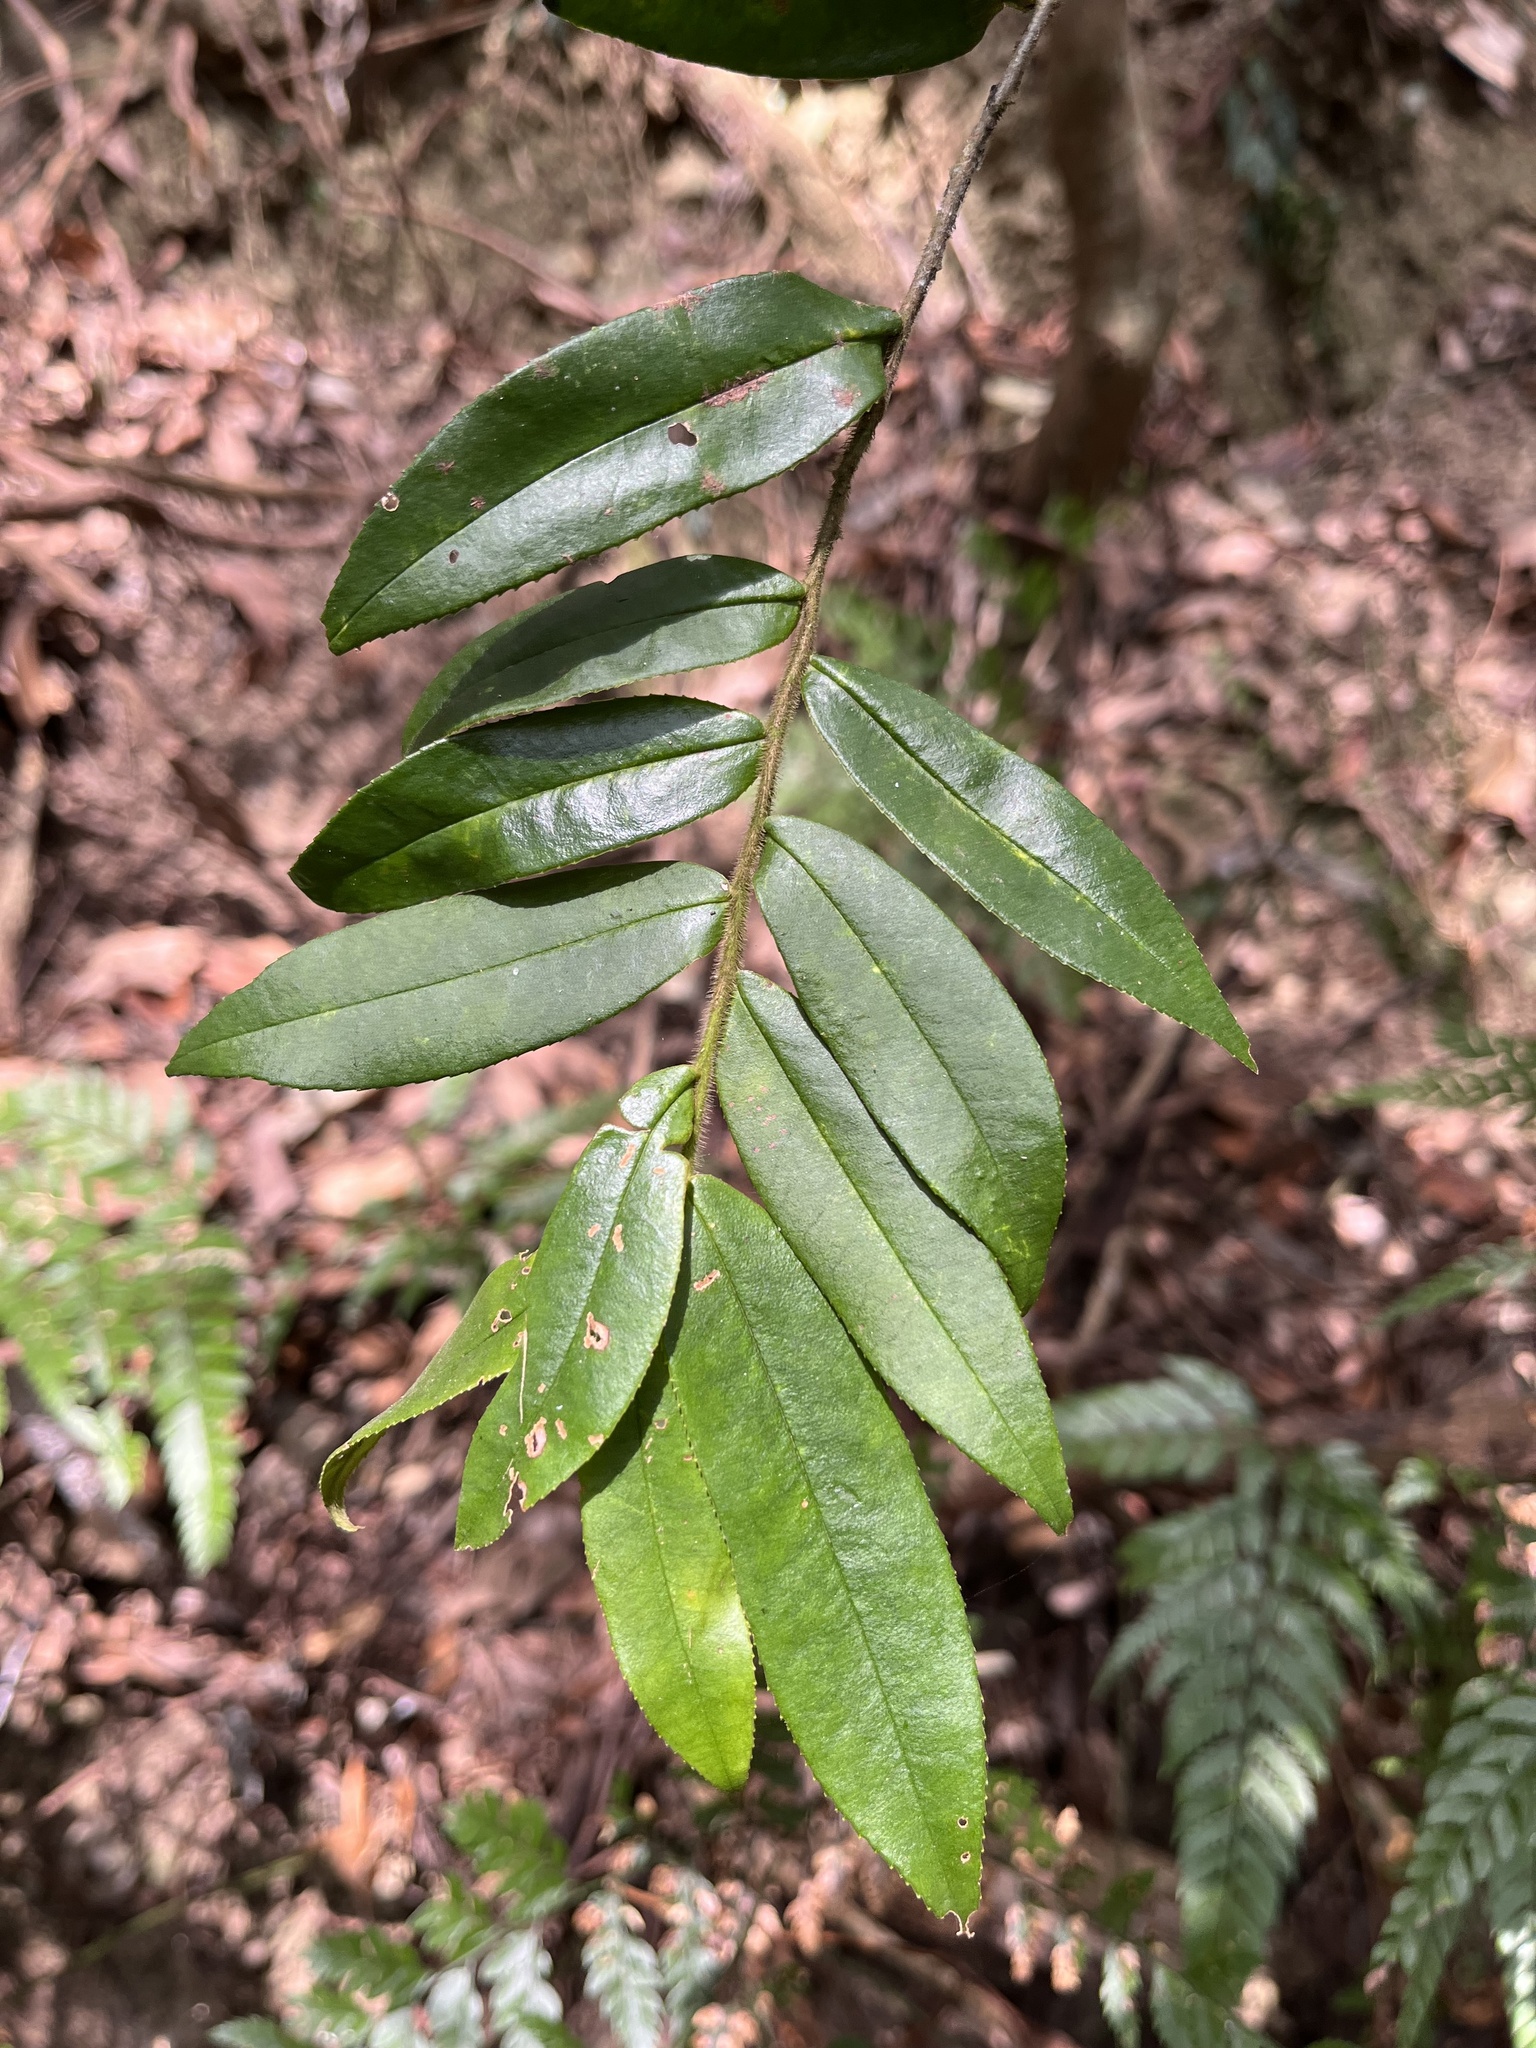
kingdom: Plantae
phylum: Tracheophyta
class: Magnoliopsida
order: Ericales
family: Pentaphylacaceae
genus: Eurya
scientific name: Eurya strigillosa
